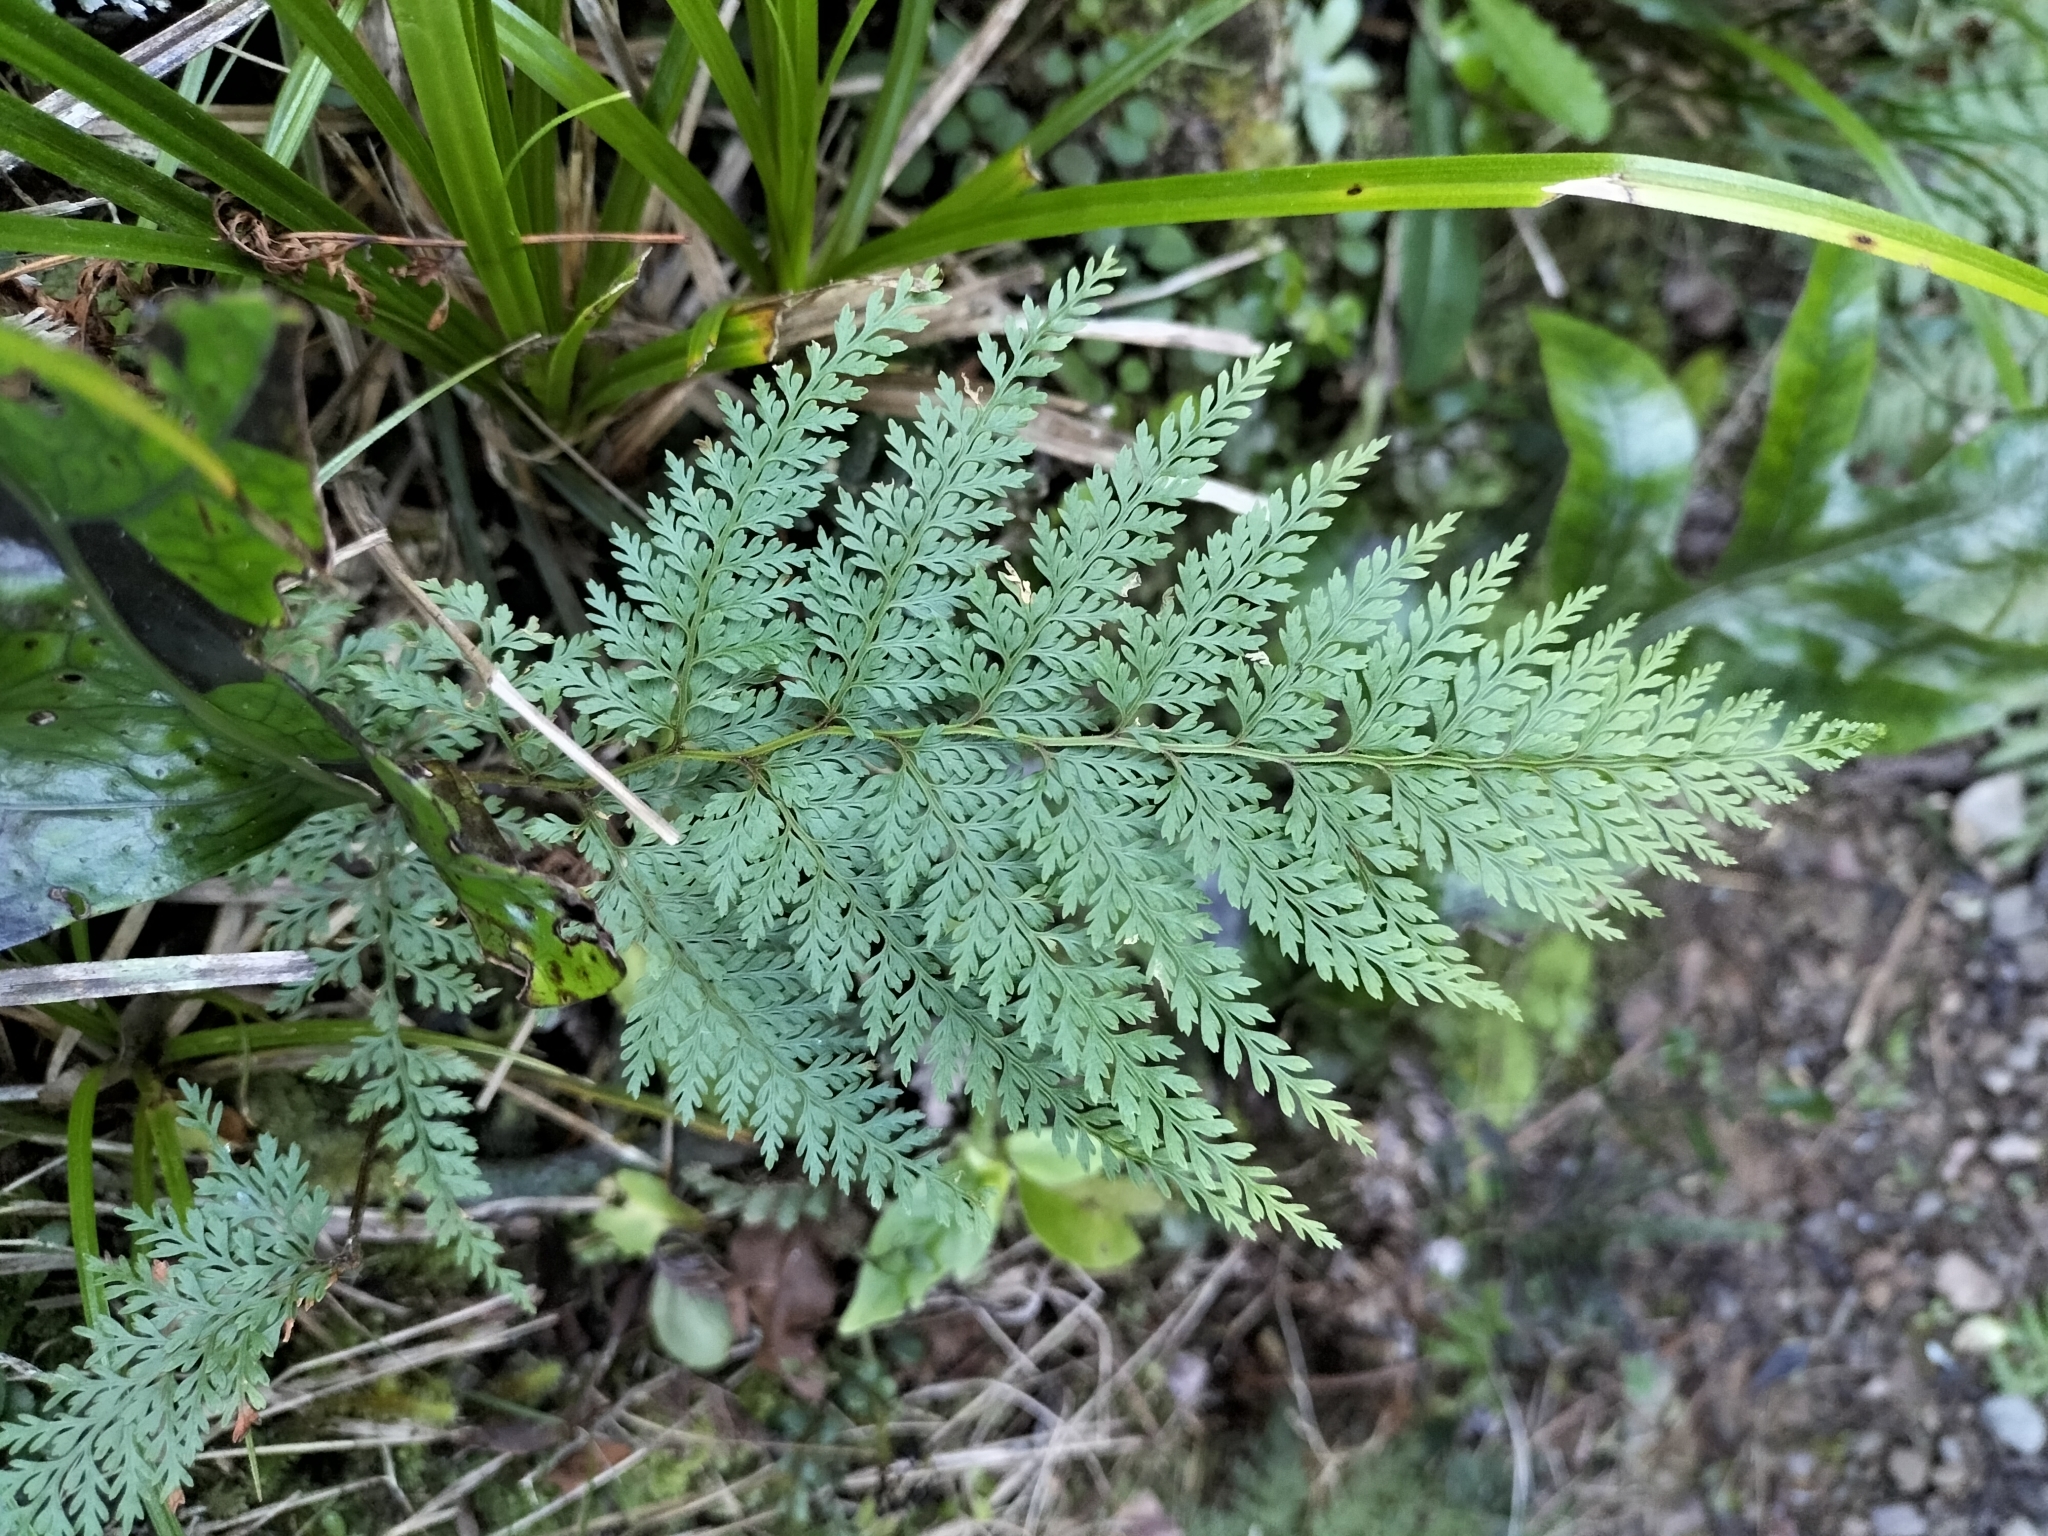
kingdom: Plantae
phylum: Tracheophyta
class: Polypodiopsida
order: Polypodiales
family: Dennstaedtiaceae
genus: Paesia
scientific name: Paesia scaberula
